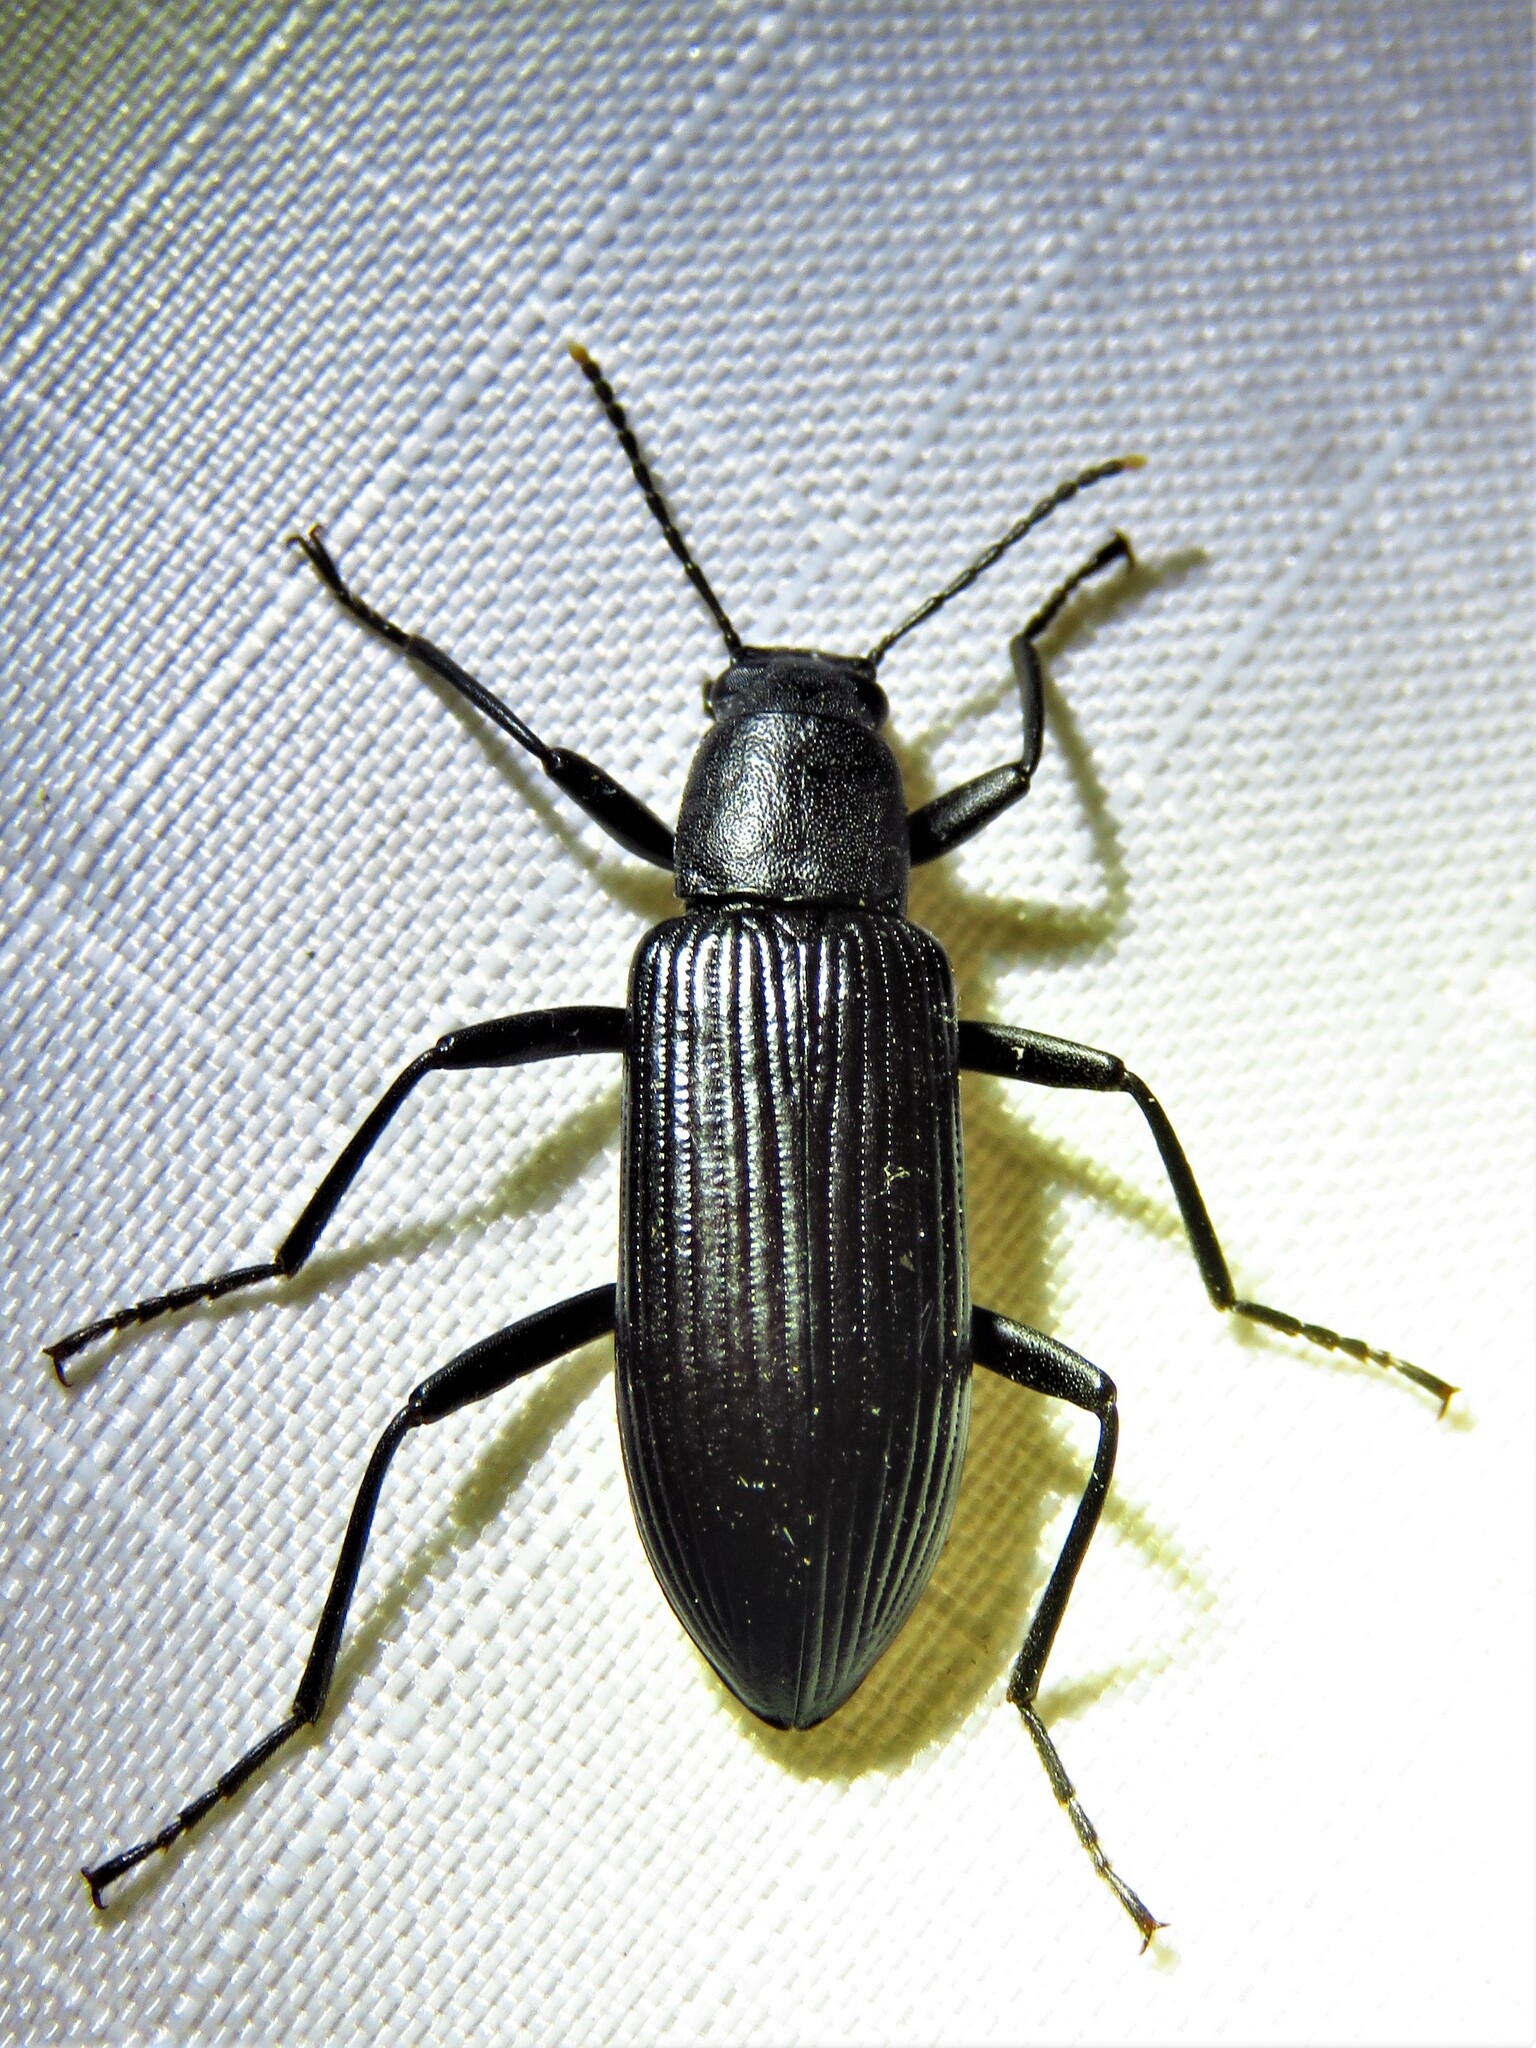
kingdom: Animalia
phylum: Arthropoda
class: Insecta
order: Coleoptera
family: Tenebrionidae
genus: Strongylium
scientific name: Strongylium tenuicolle
